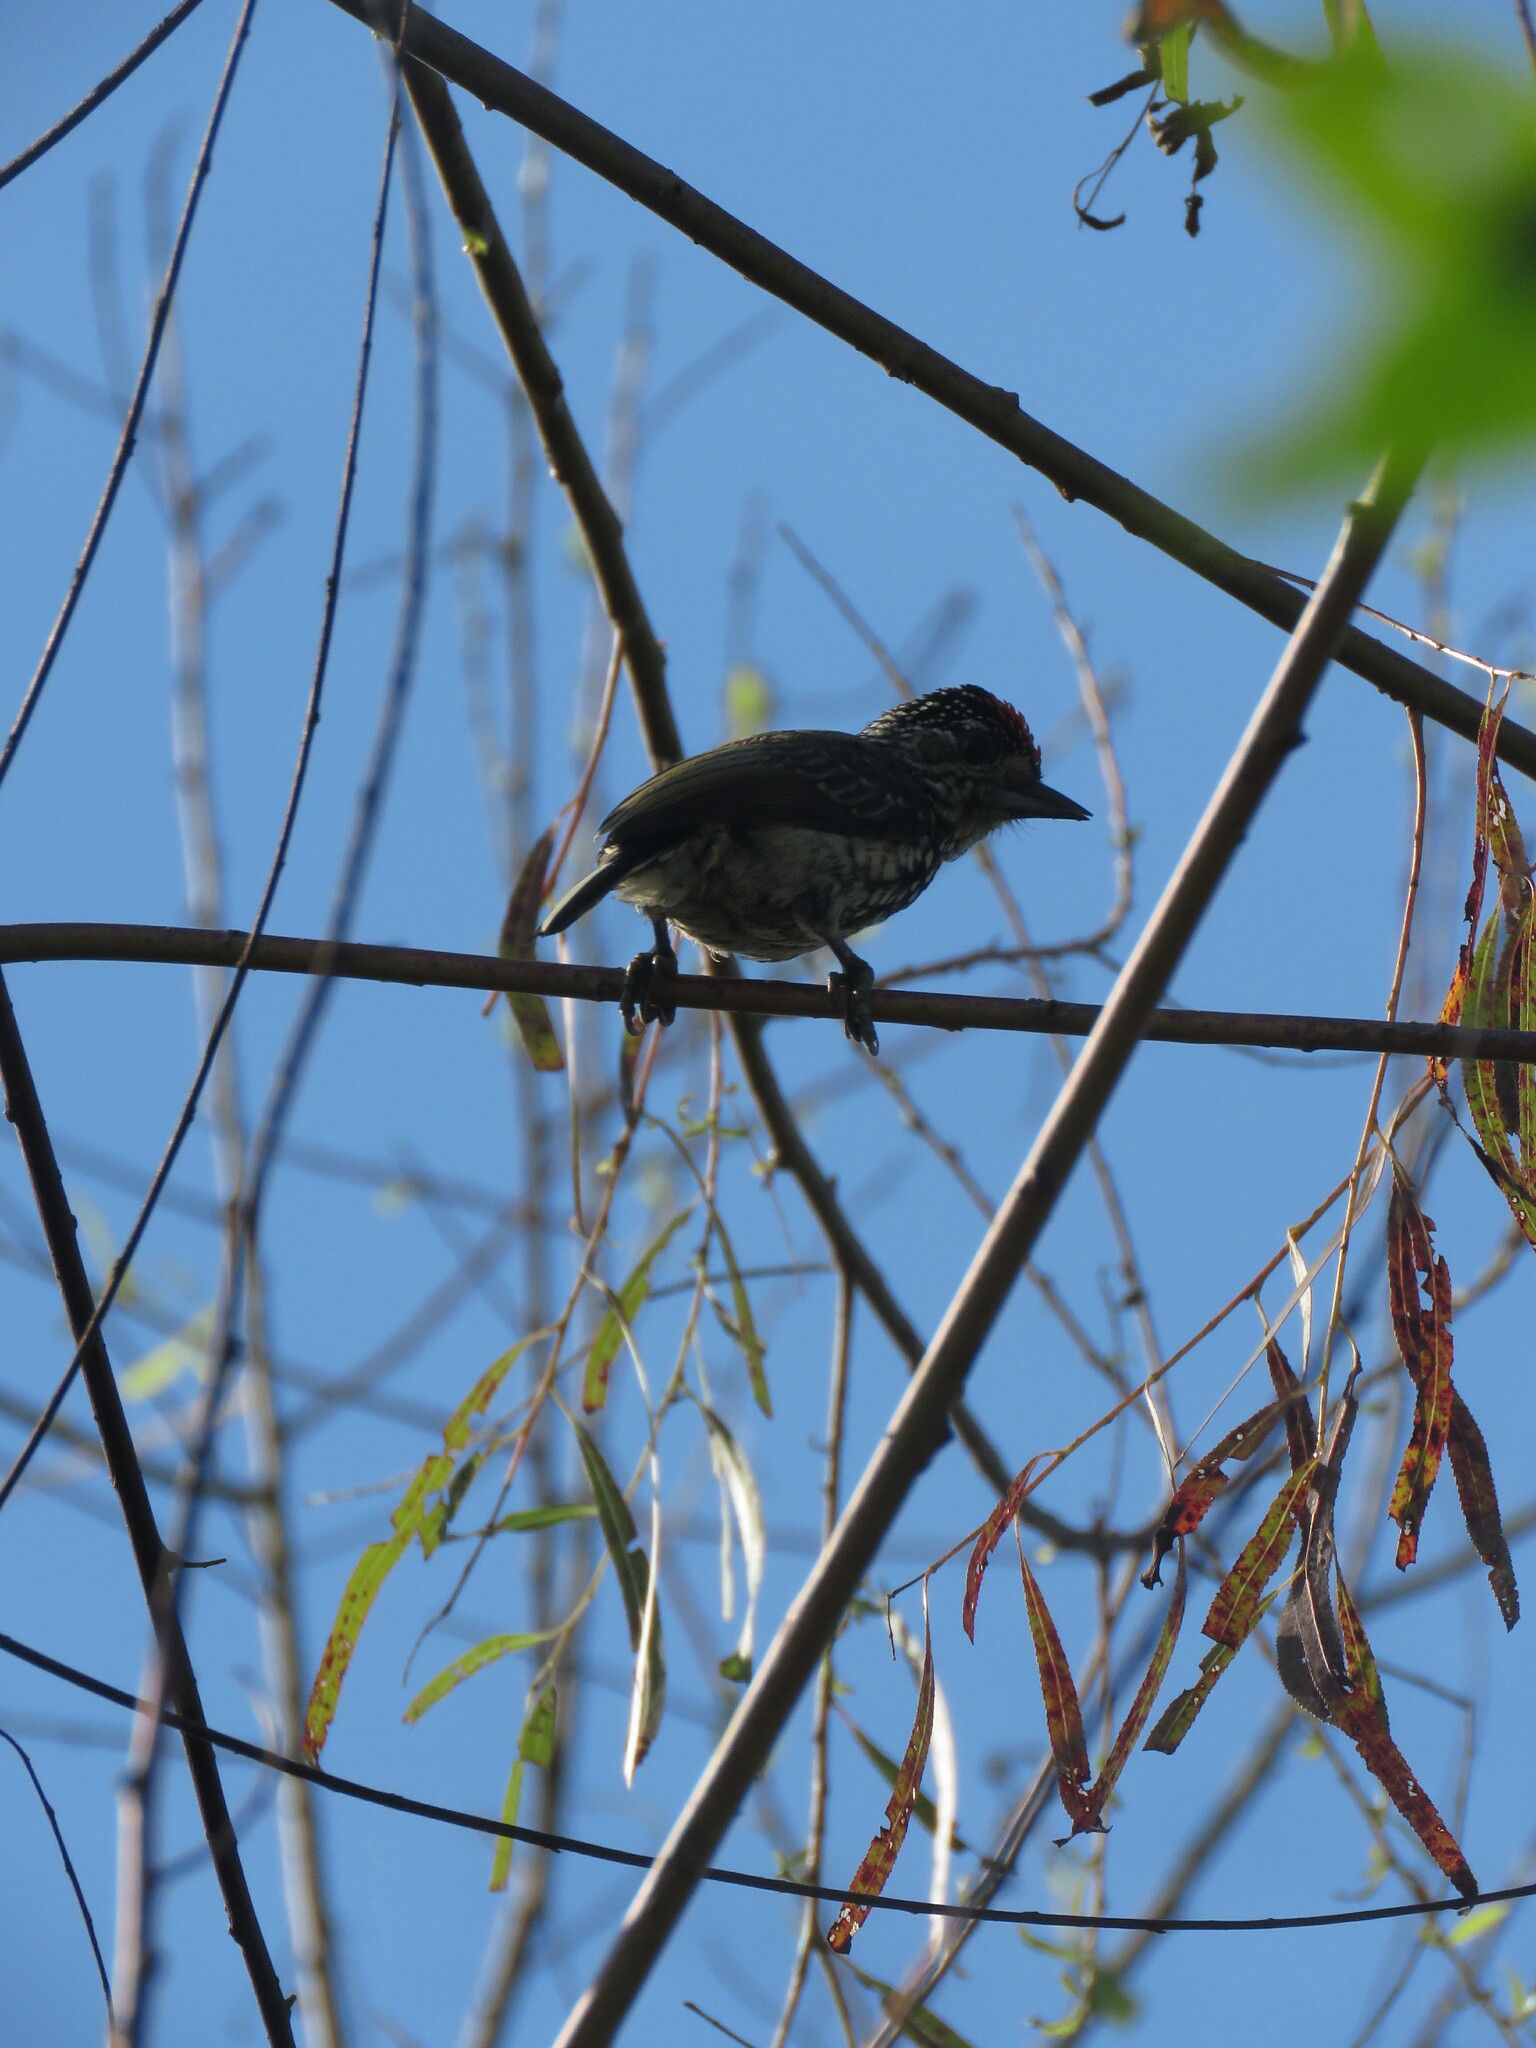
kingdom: Animalia
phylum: Chordata
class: Aves
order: Piciformes
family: Picidae
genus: Picumnus
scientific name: Picumnus albosquamatus
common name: White-wedged piculet
